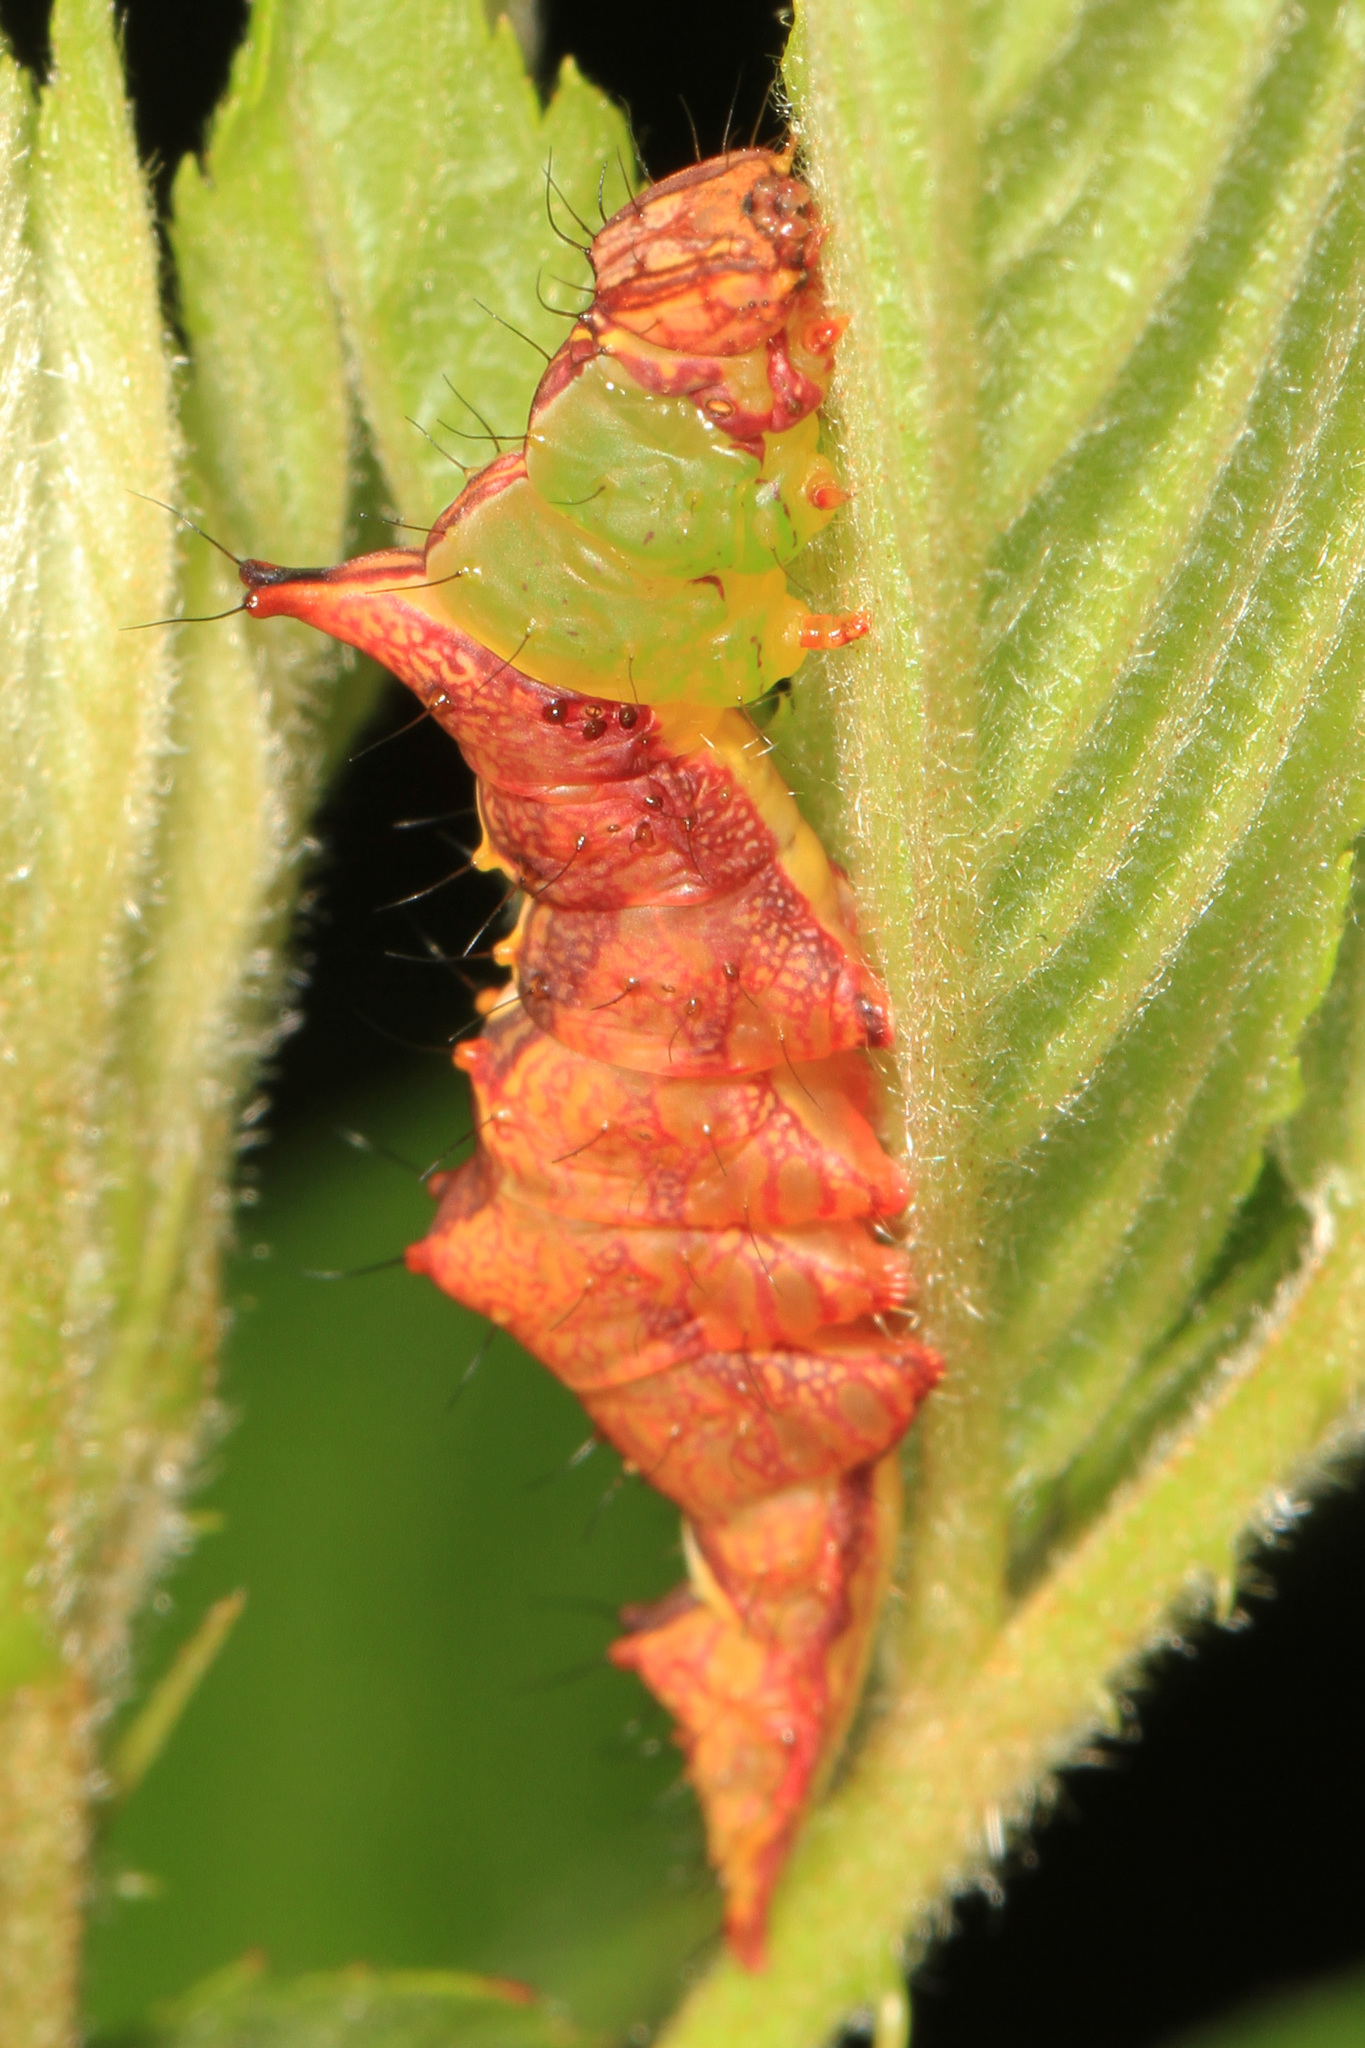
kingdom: Animalia
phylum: Arthropoda
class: Insecta
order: Lepidoptera
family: Notodontidae
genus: Schizura
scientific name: Schizura ipomaeae
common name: Morning-glory prominent
